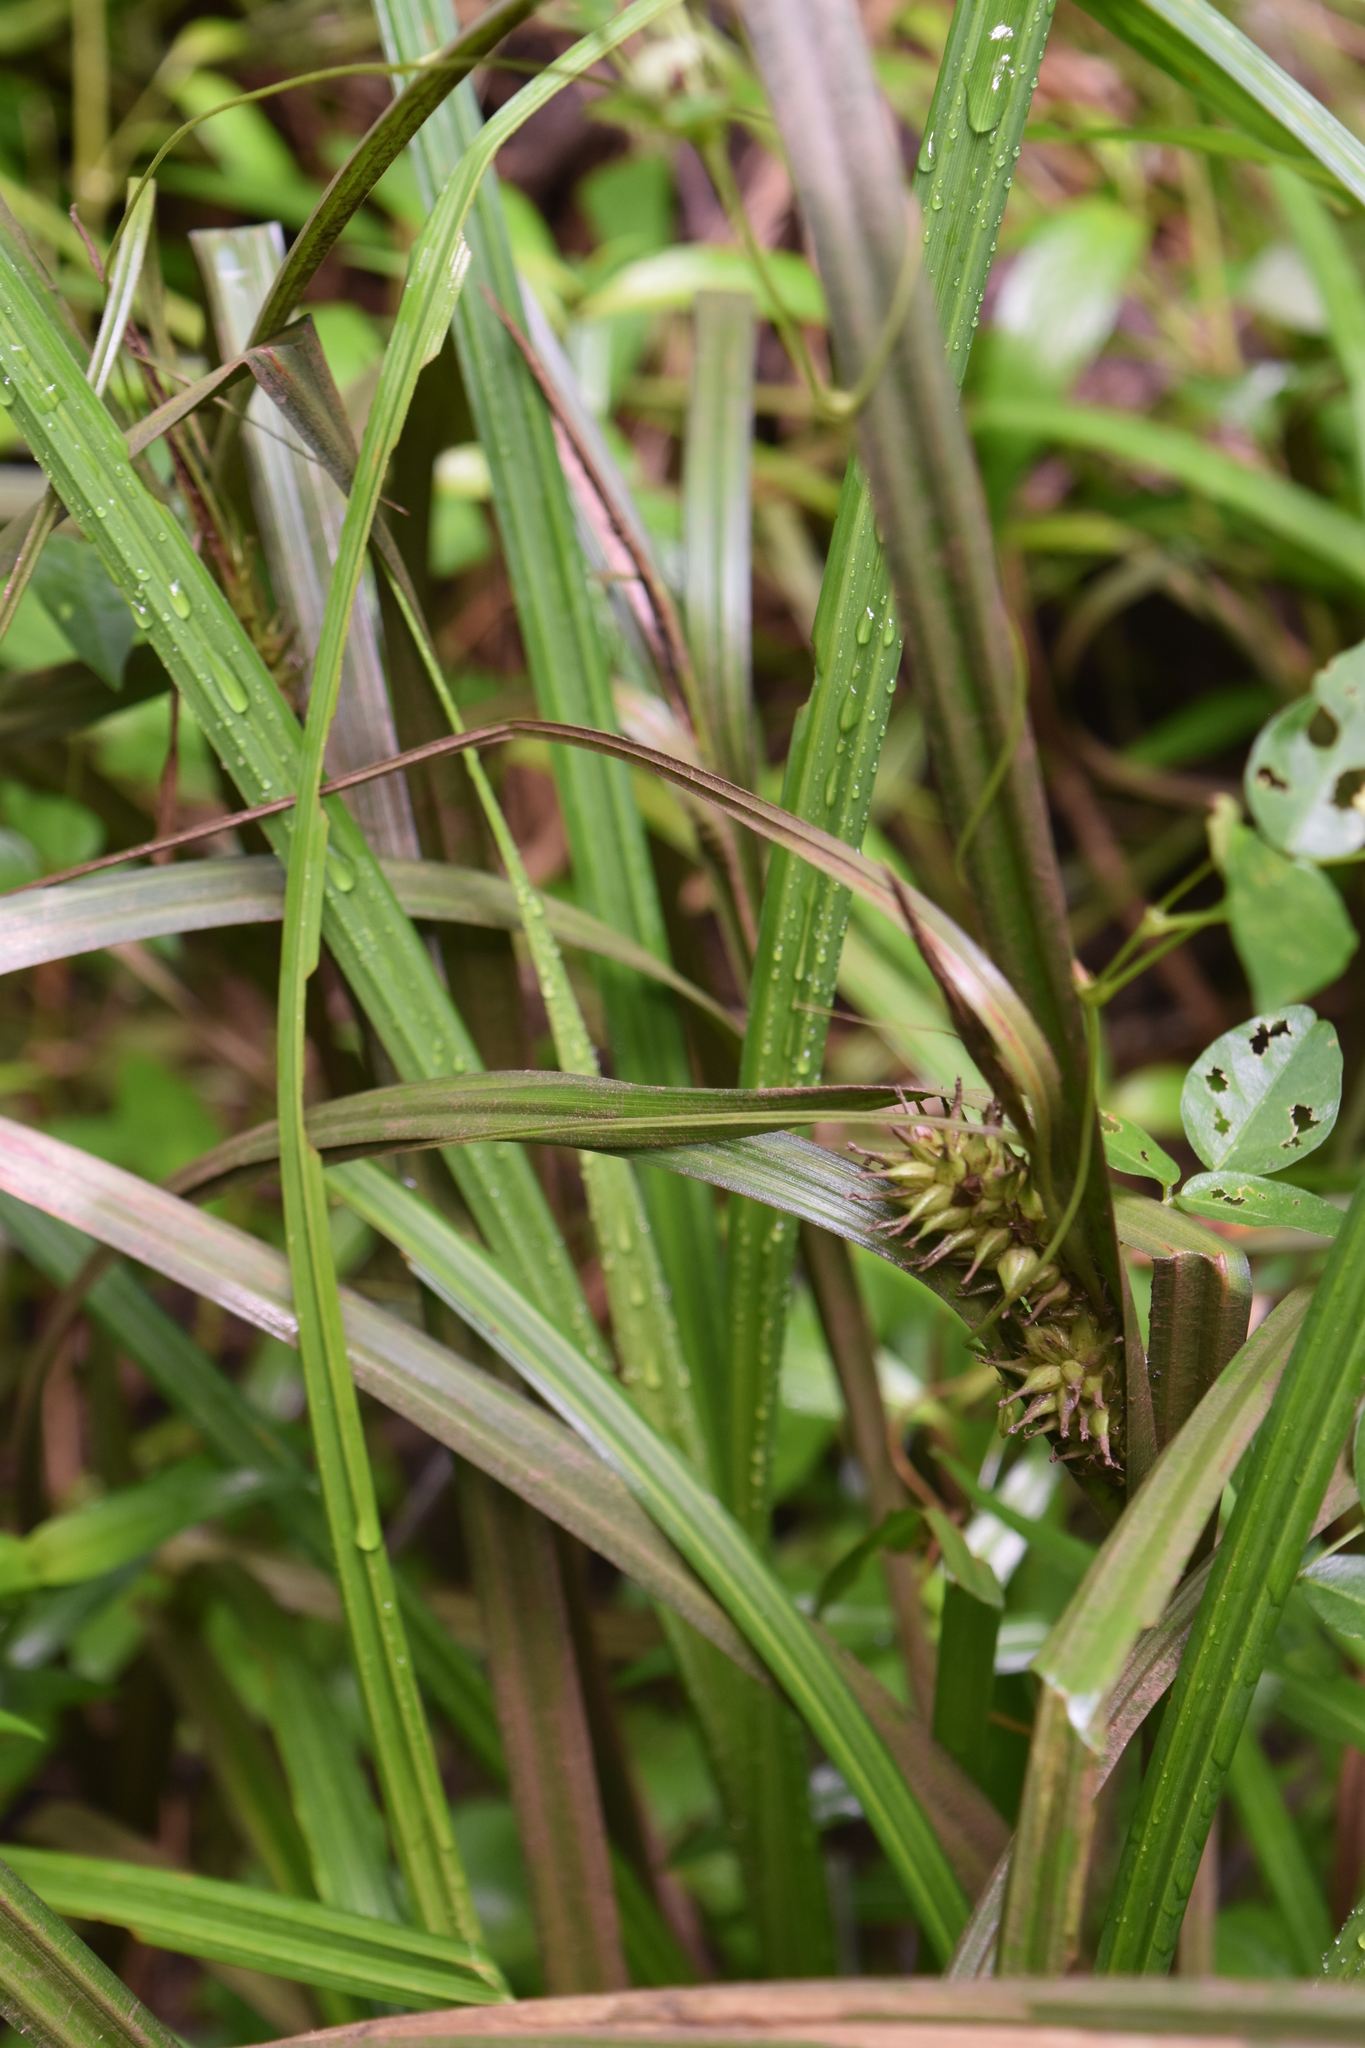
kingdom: Plantae
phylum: Tracheophyta
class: Liliopsida
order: Poales
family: Cyperaceae
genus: Carex
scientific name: Carex lupulina
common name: Hop sedge
